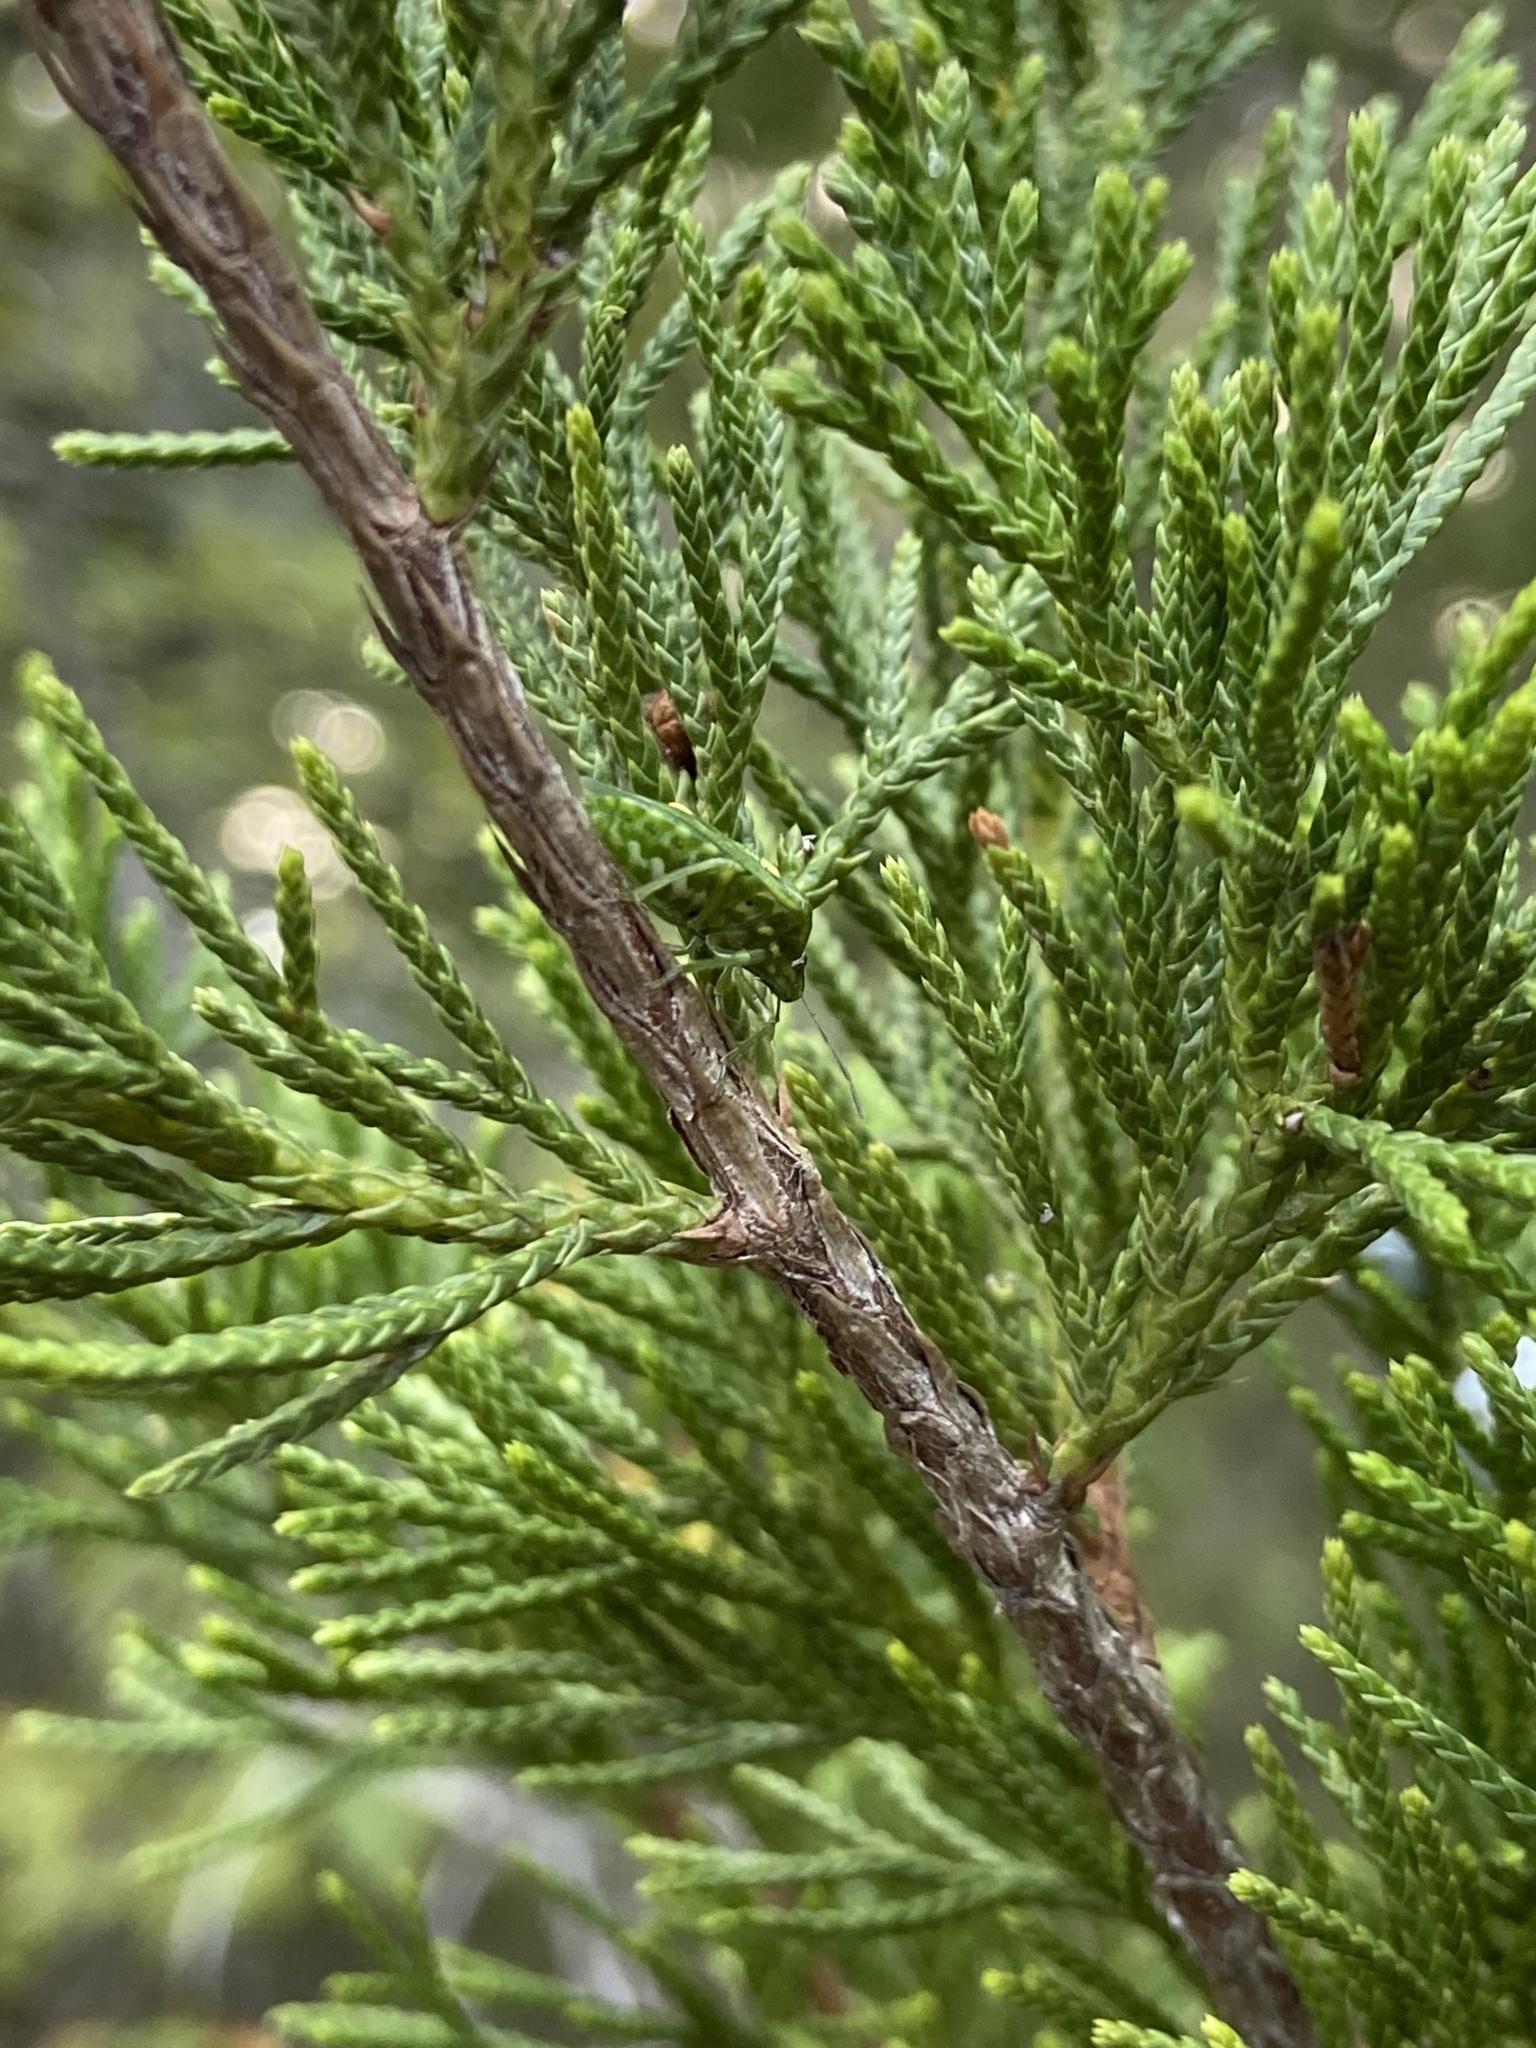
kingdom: Animalia
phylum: Arthropoda
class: Insecta
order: Hemiptera
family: Pentatomidae
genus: Banasa
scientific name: Banasa euchlora
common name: Cedar berry bug
